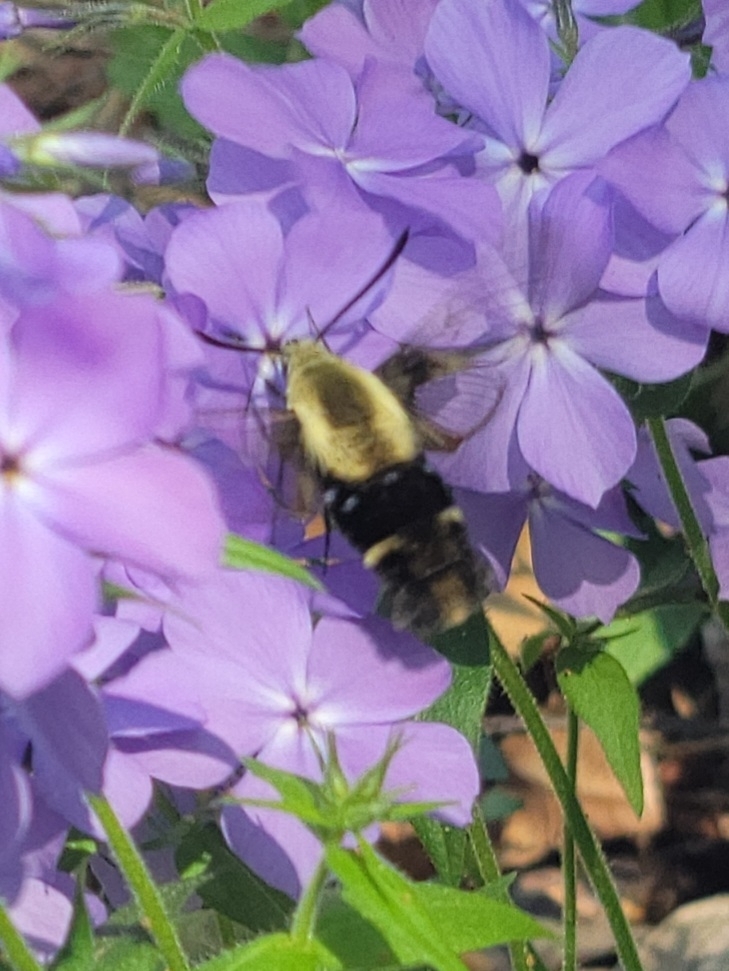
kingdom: Animalia
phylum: Arthropoda
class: Insecta
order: Lepidoptera
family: Sphingidae
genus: Hemaris
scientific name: Hemaris diffinis
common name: Bumblebee moth
